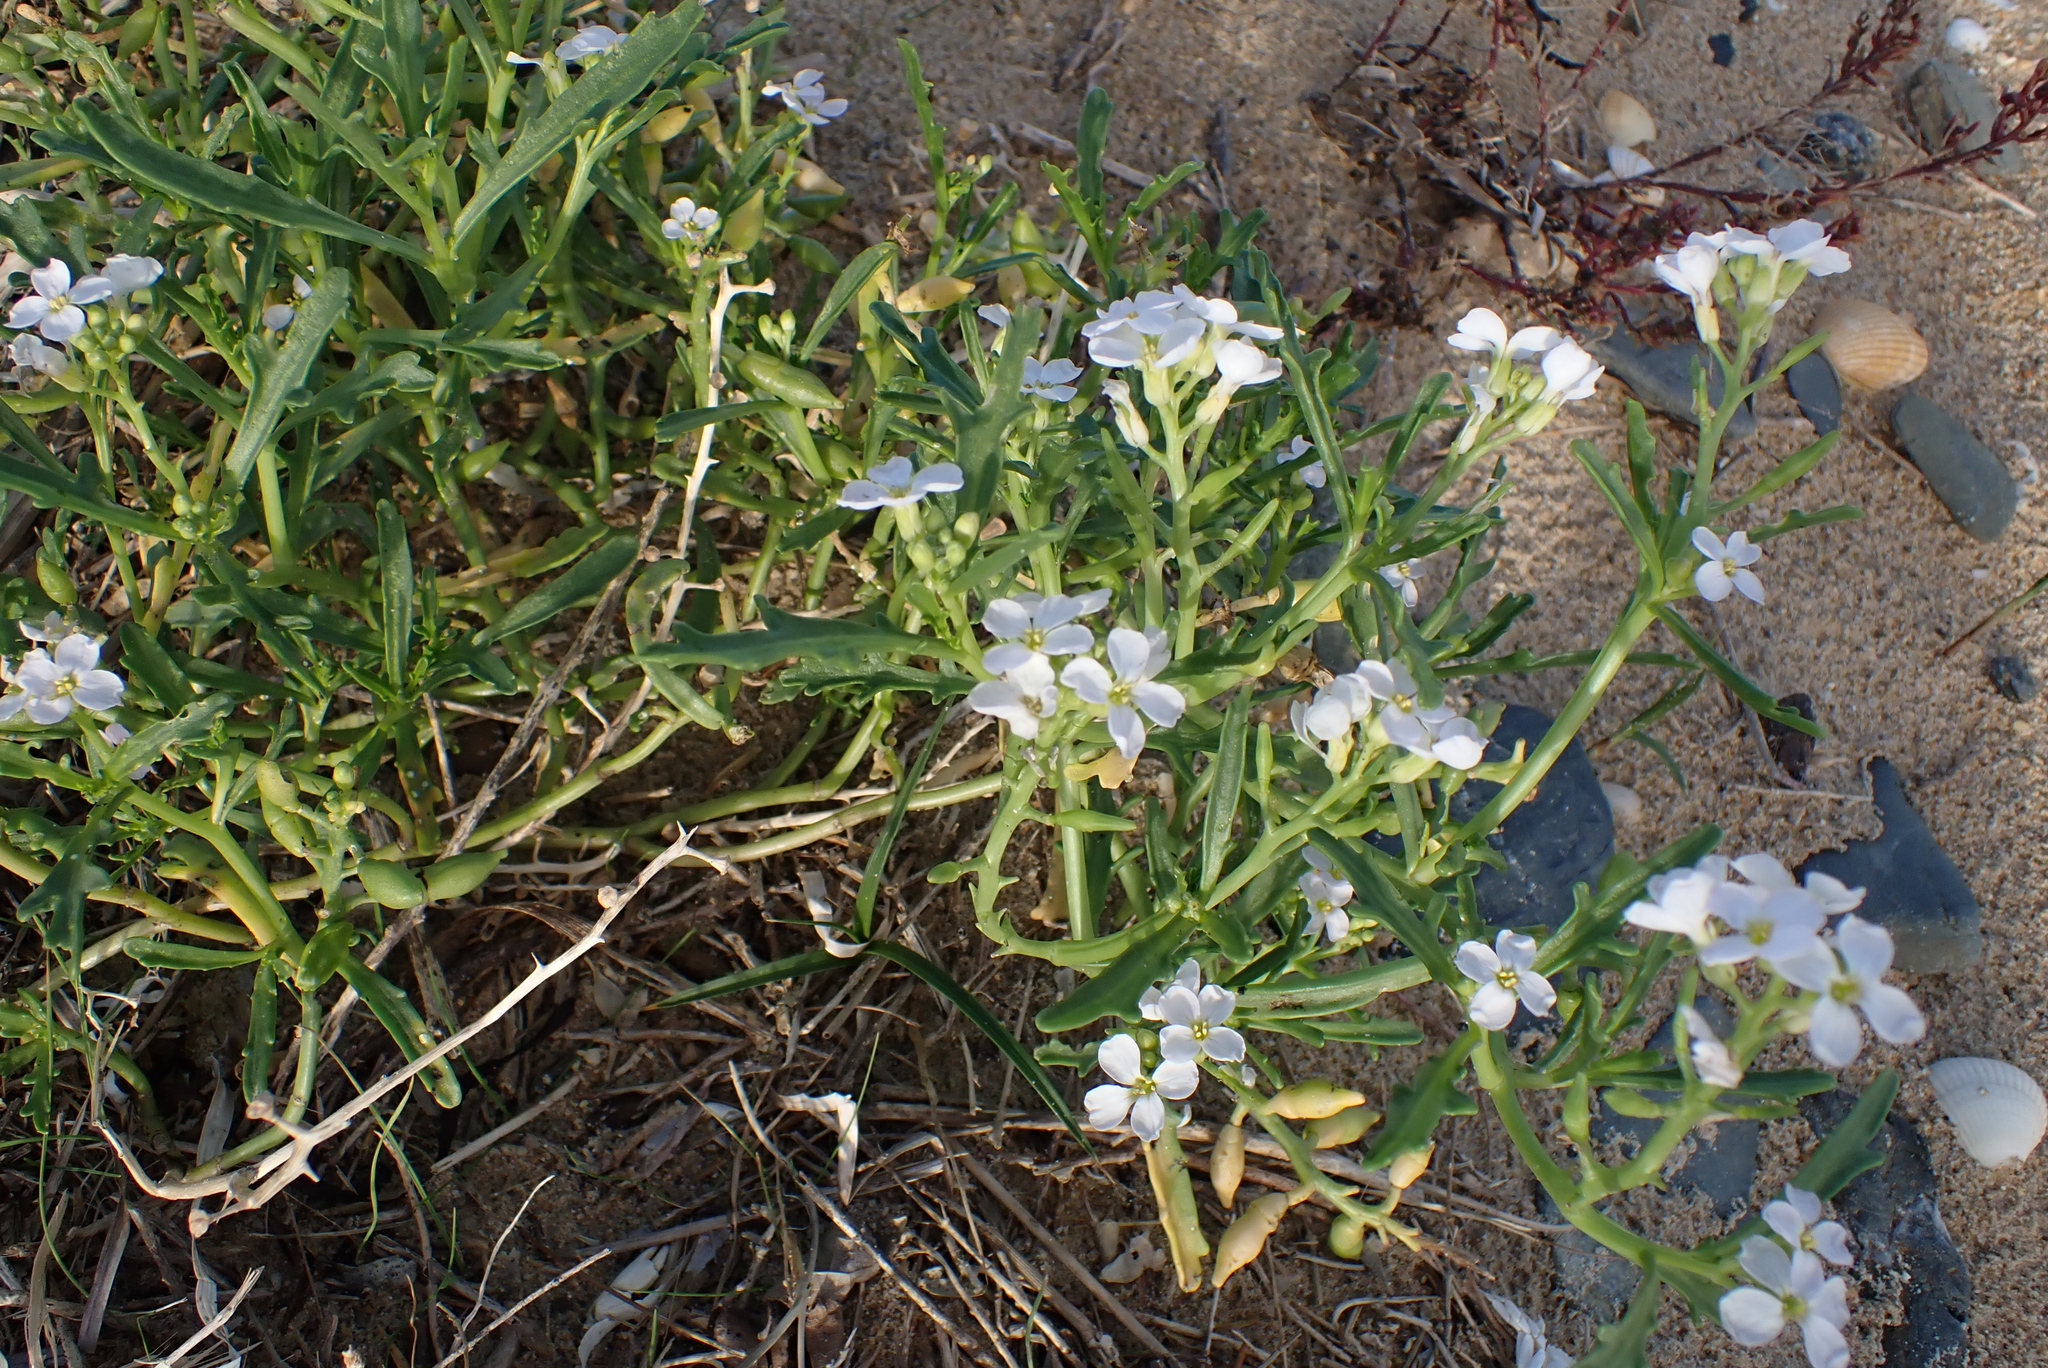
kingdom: Plantae
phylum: Tracheophyta
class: Magnoliopsida
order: Brassicales
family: Brassicaceae
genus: Cakile
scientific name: Cakile maritima
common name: Sea rocket
